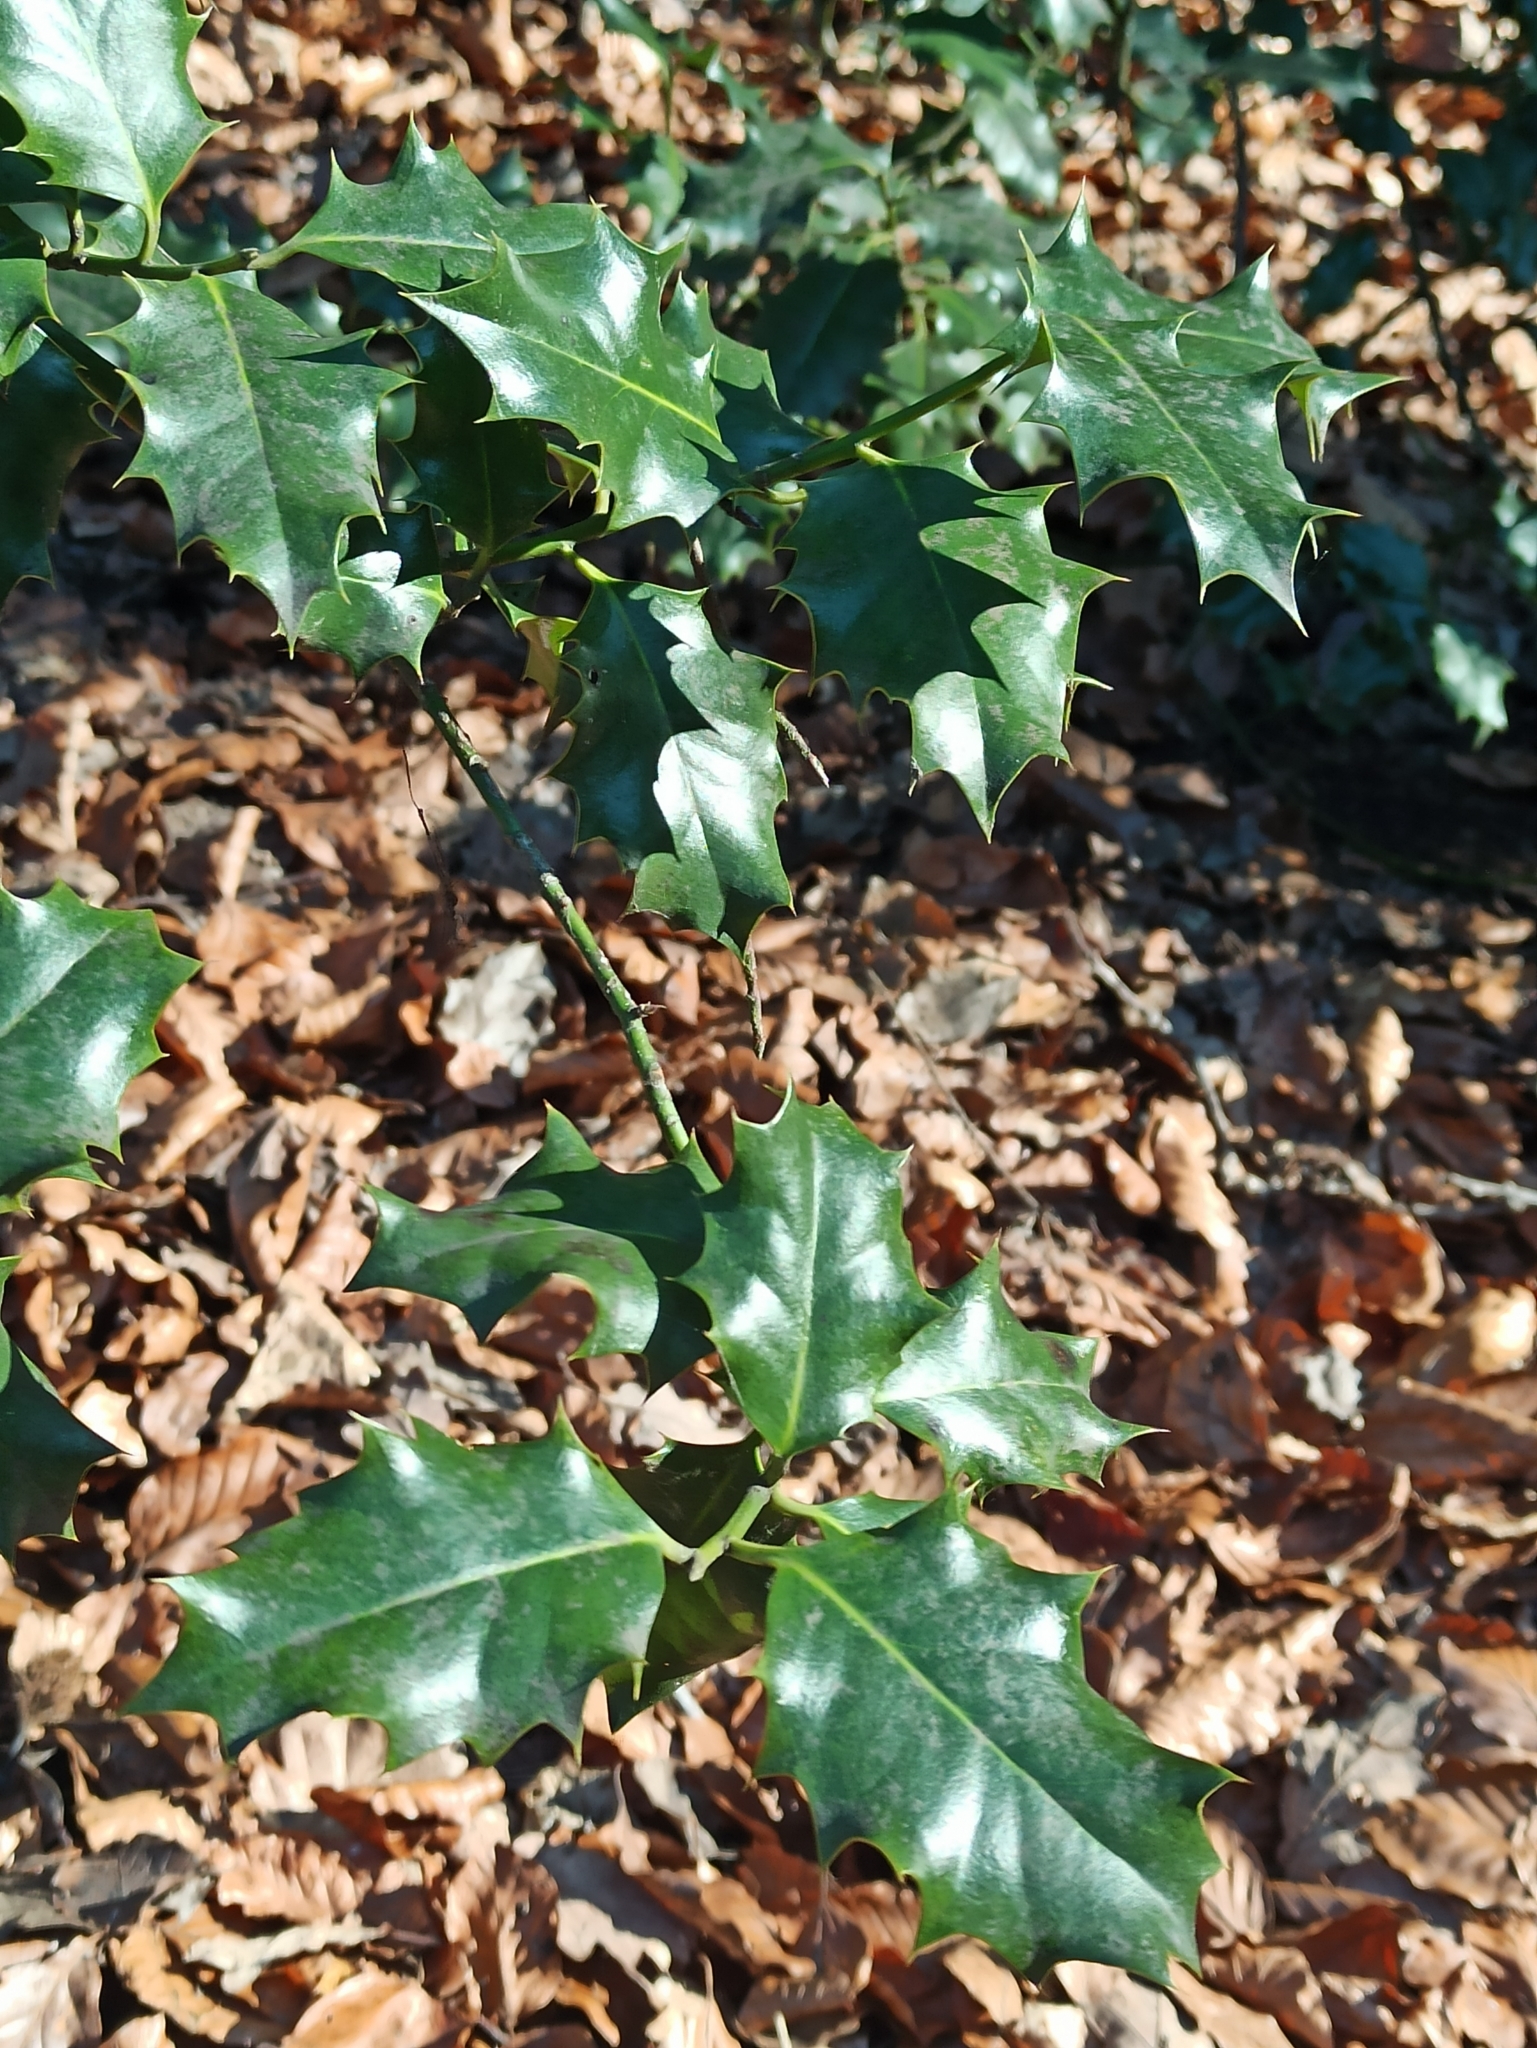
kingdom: Plantae
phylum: Tracheophyta
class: Magnoliopsida
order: Aquifoliales
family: Aquifoliaceae
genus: Ilex
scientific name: Ilex aquifolium
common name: English holly
